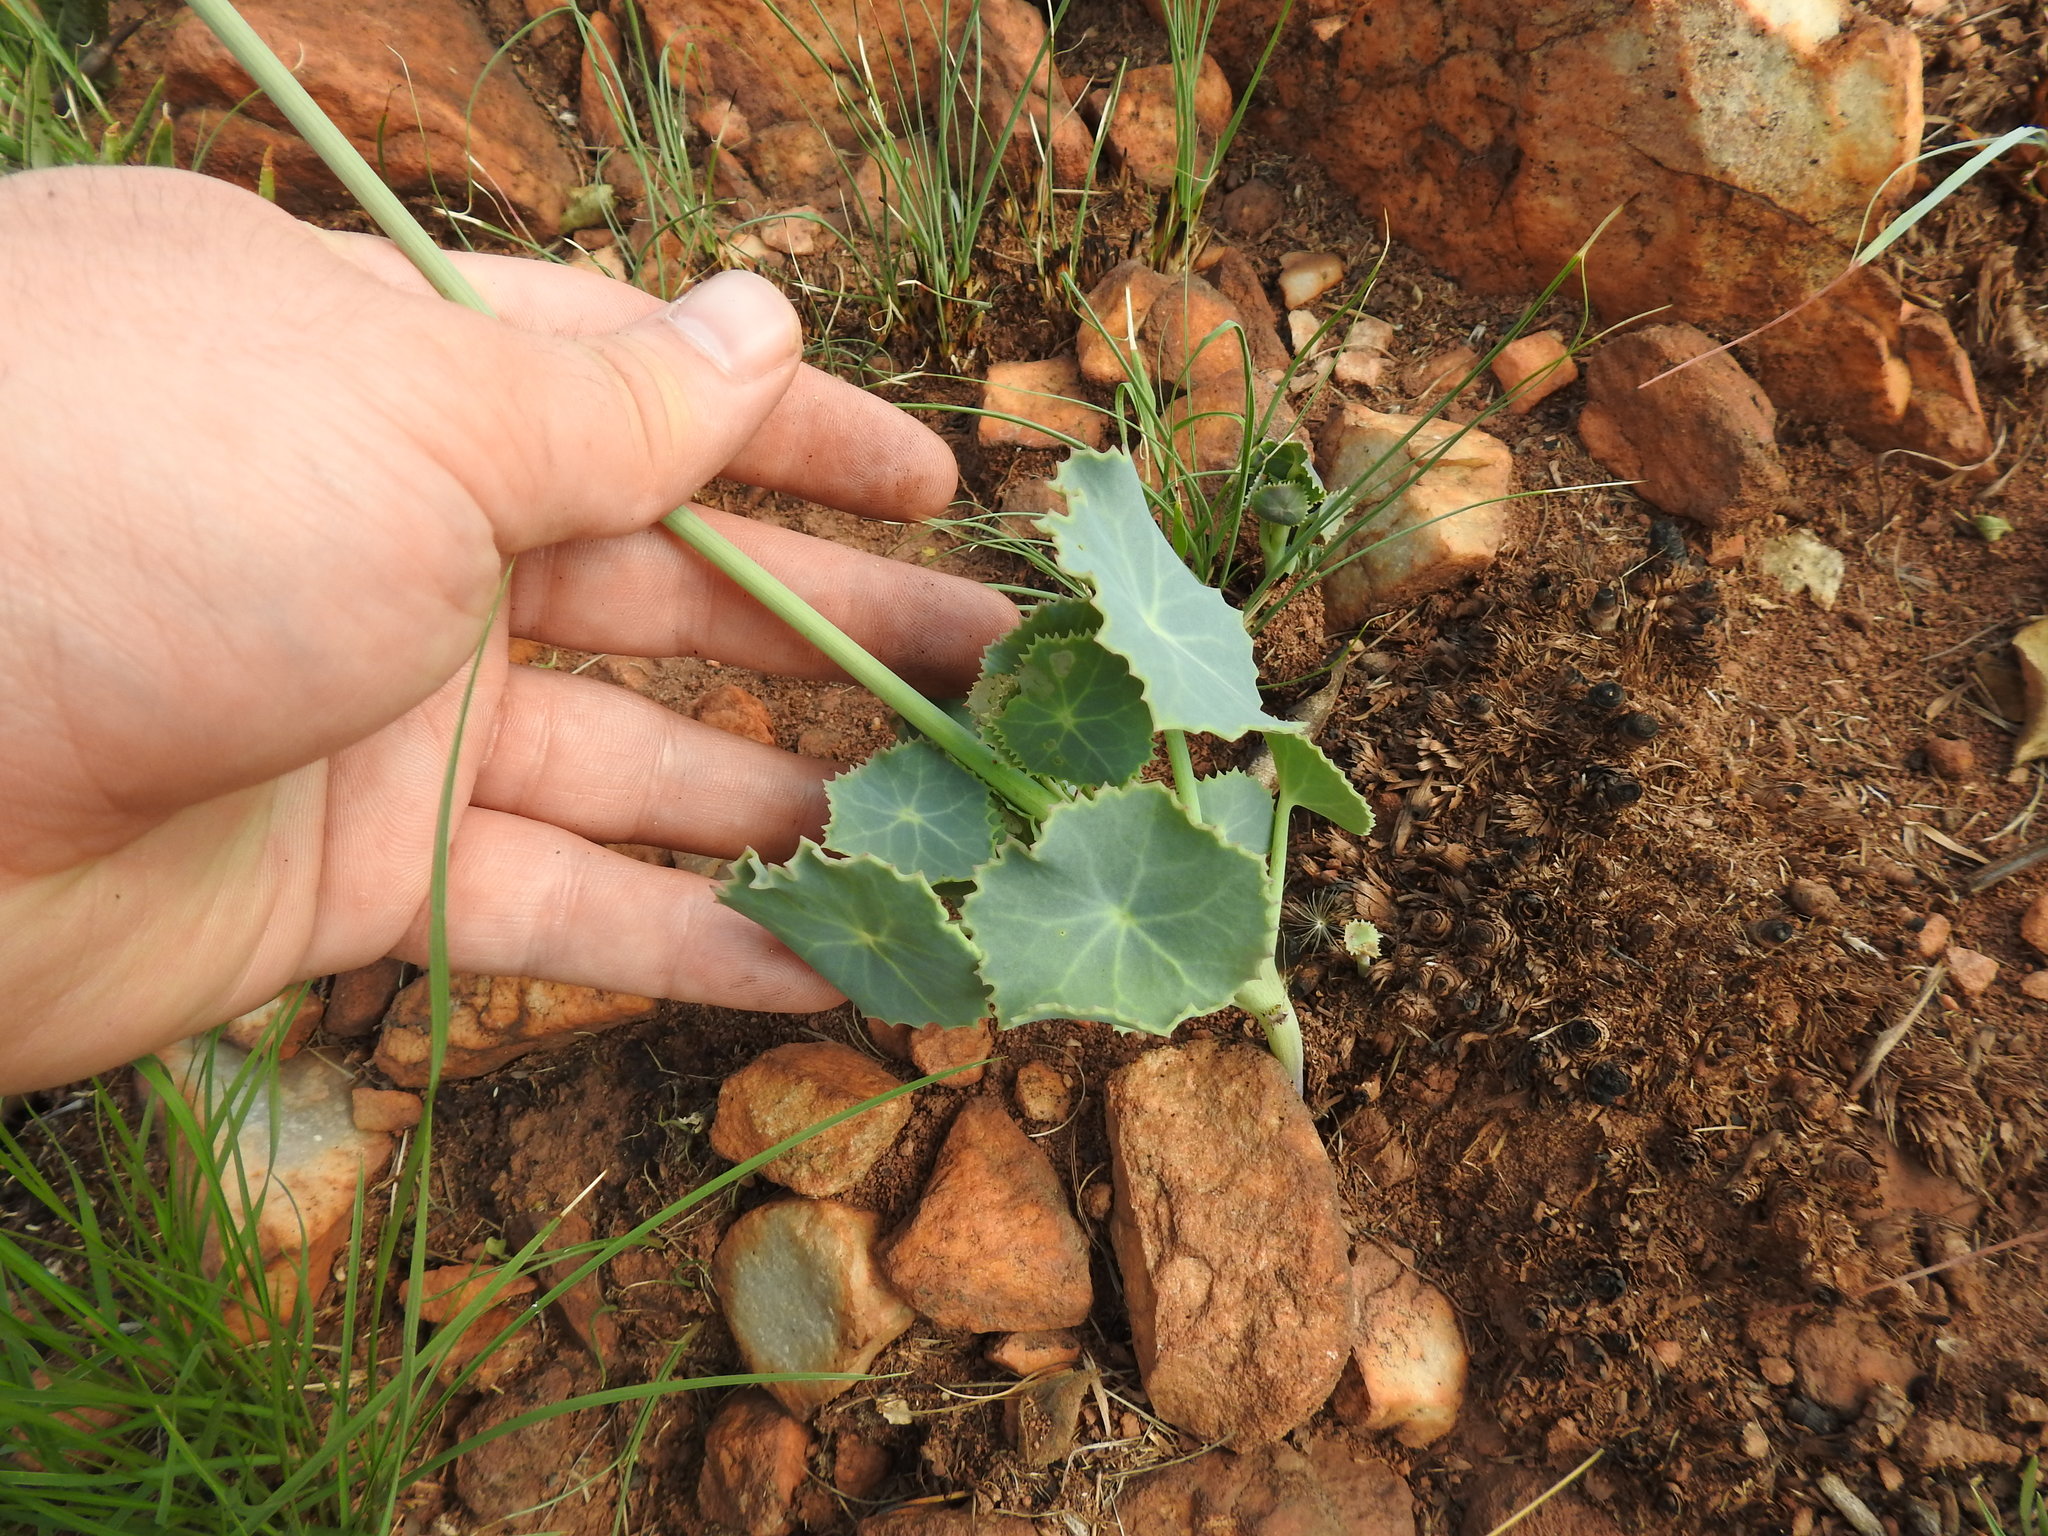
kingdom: Plantae
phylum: Tracheophyta
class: Magnoliopsida
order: Asterales
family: Asteraceae
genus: Senecio
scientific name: Senecio oxyriifolius
